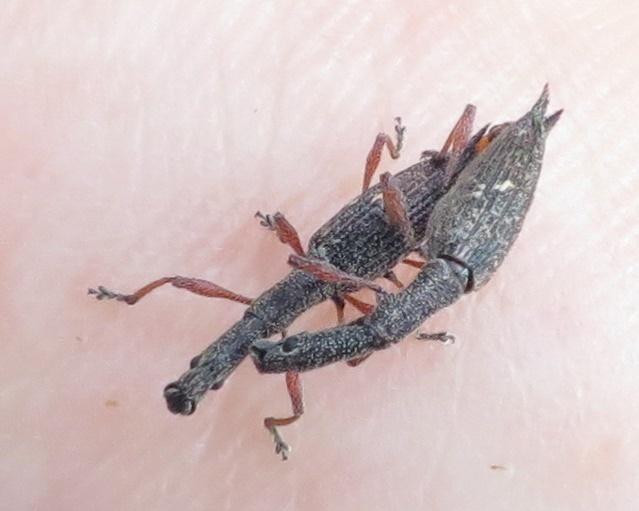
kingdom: Animalia
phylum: Arthropoda
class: Insecta
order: Coleoptera
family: Curculionidae
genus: Rhadinosomus
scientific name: Rhadinosomus acuminatus
